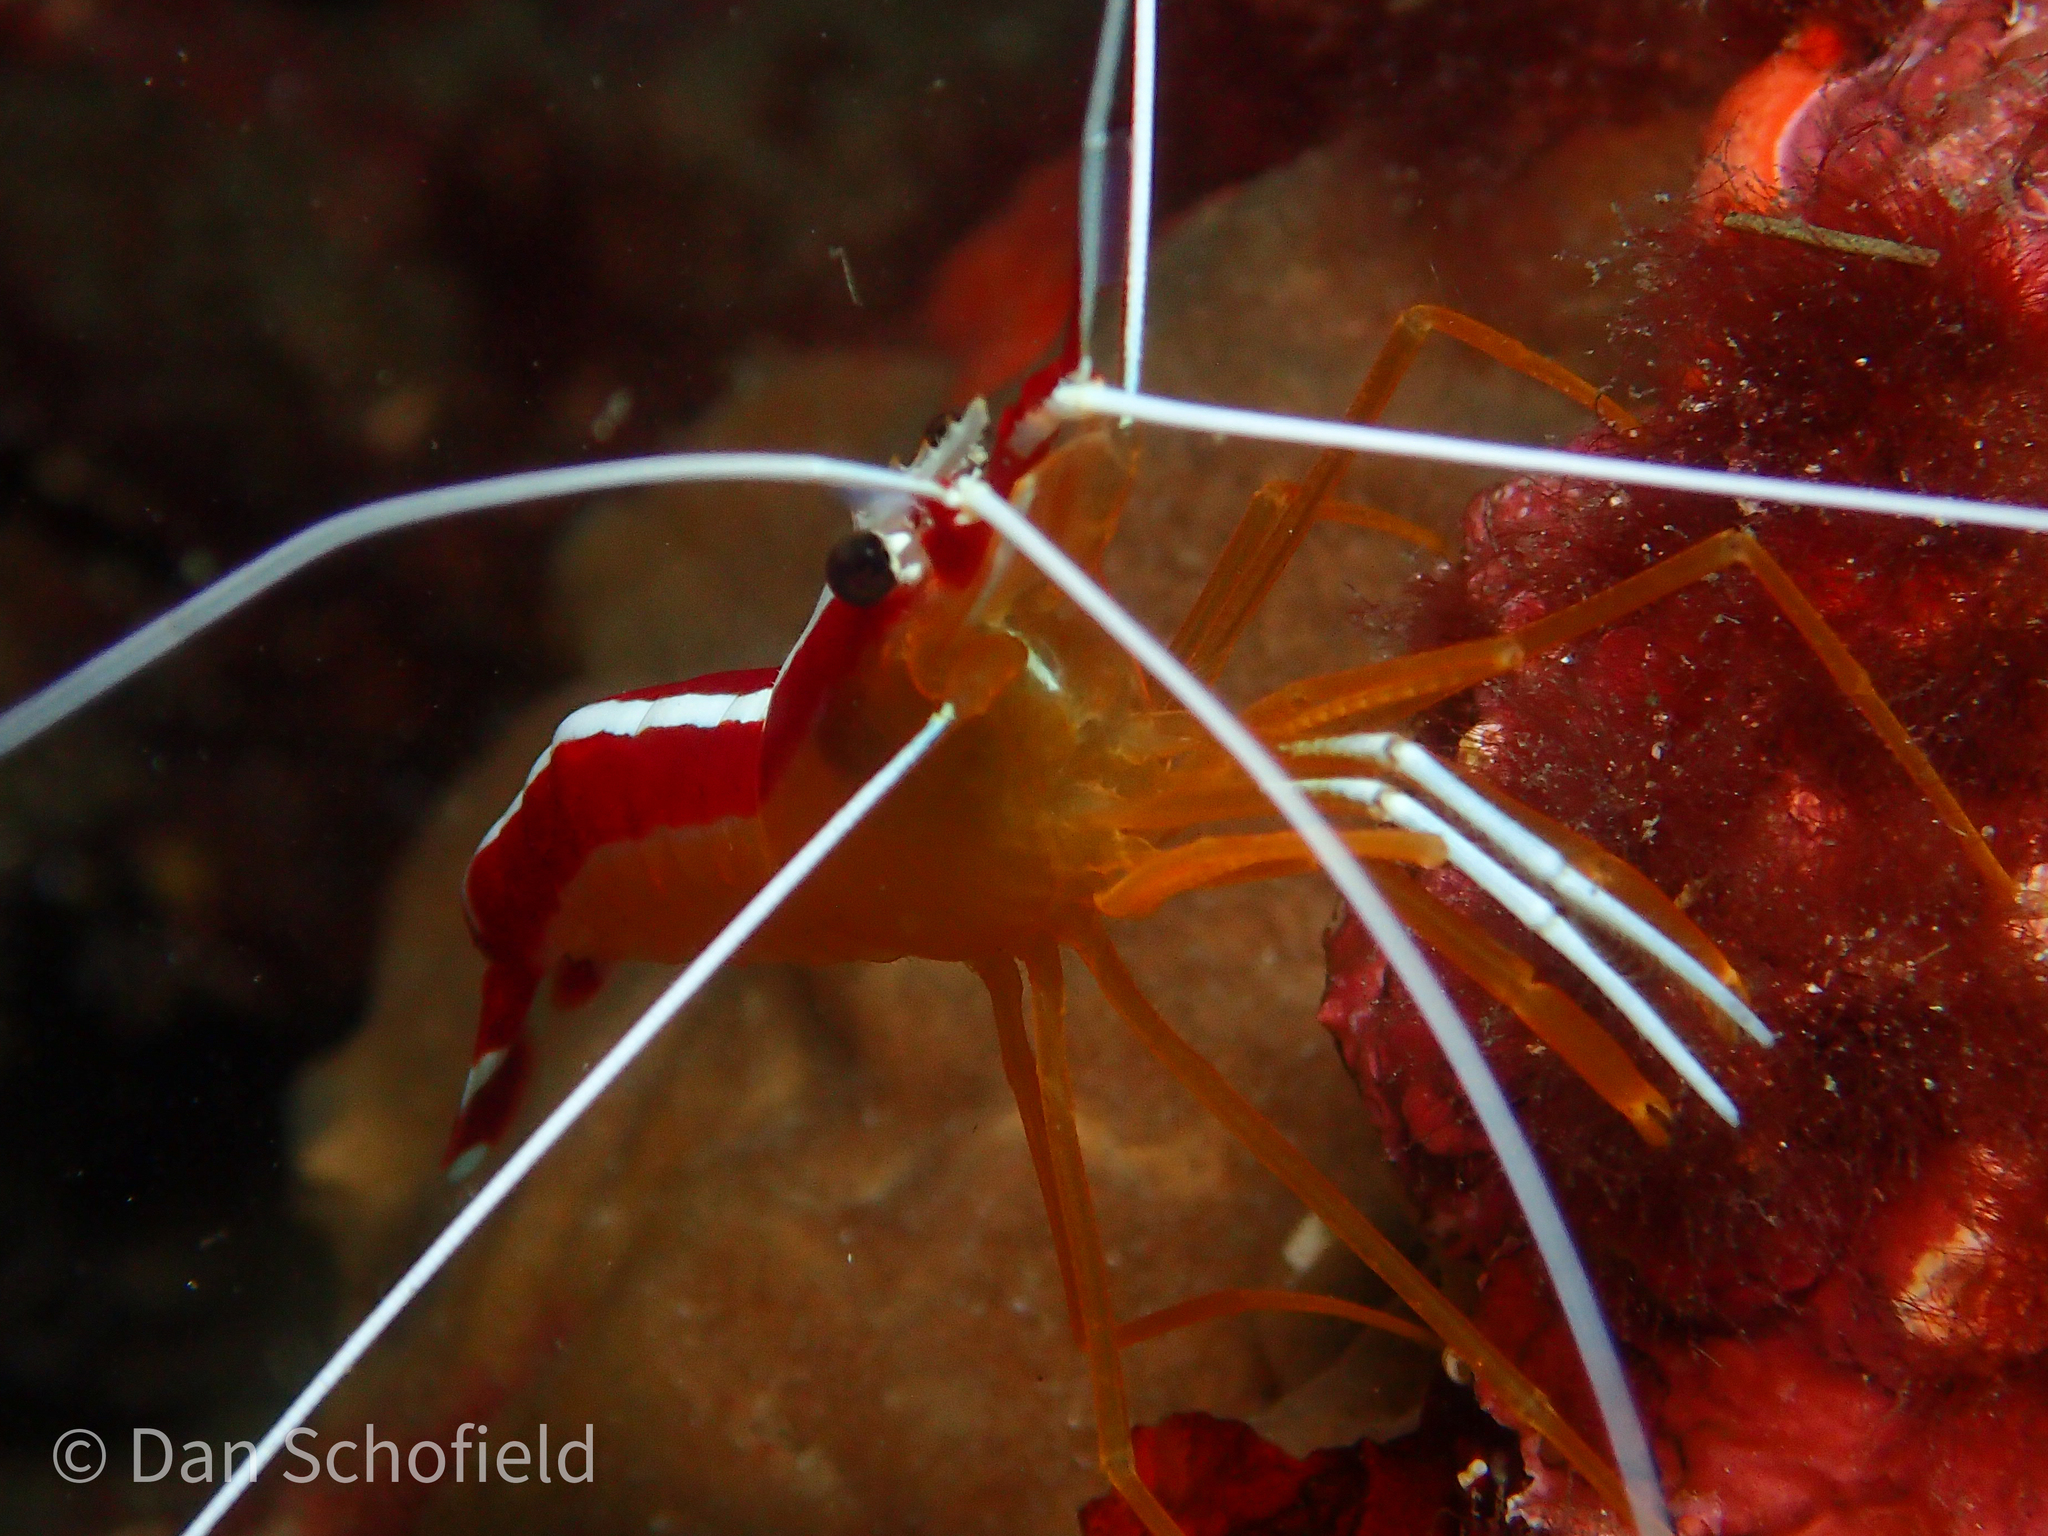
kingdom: Animalia
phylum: Arthropoda
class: Malacostraca
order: Decapoda
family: Lysmatidae
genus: Lysmata
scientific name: Lysmata amboinensis
